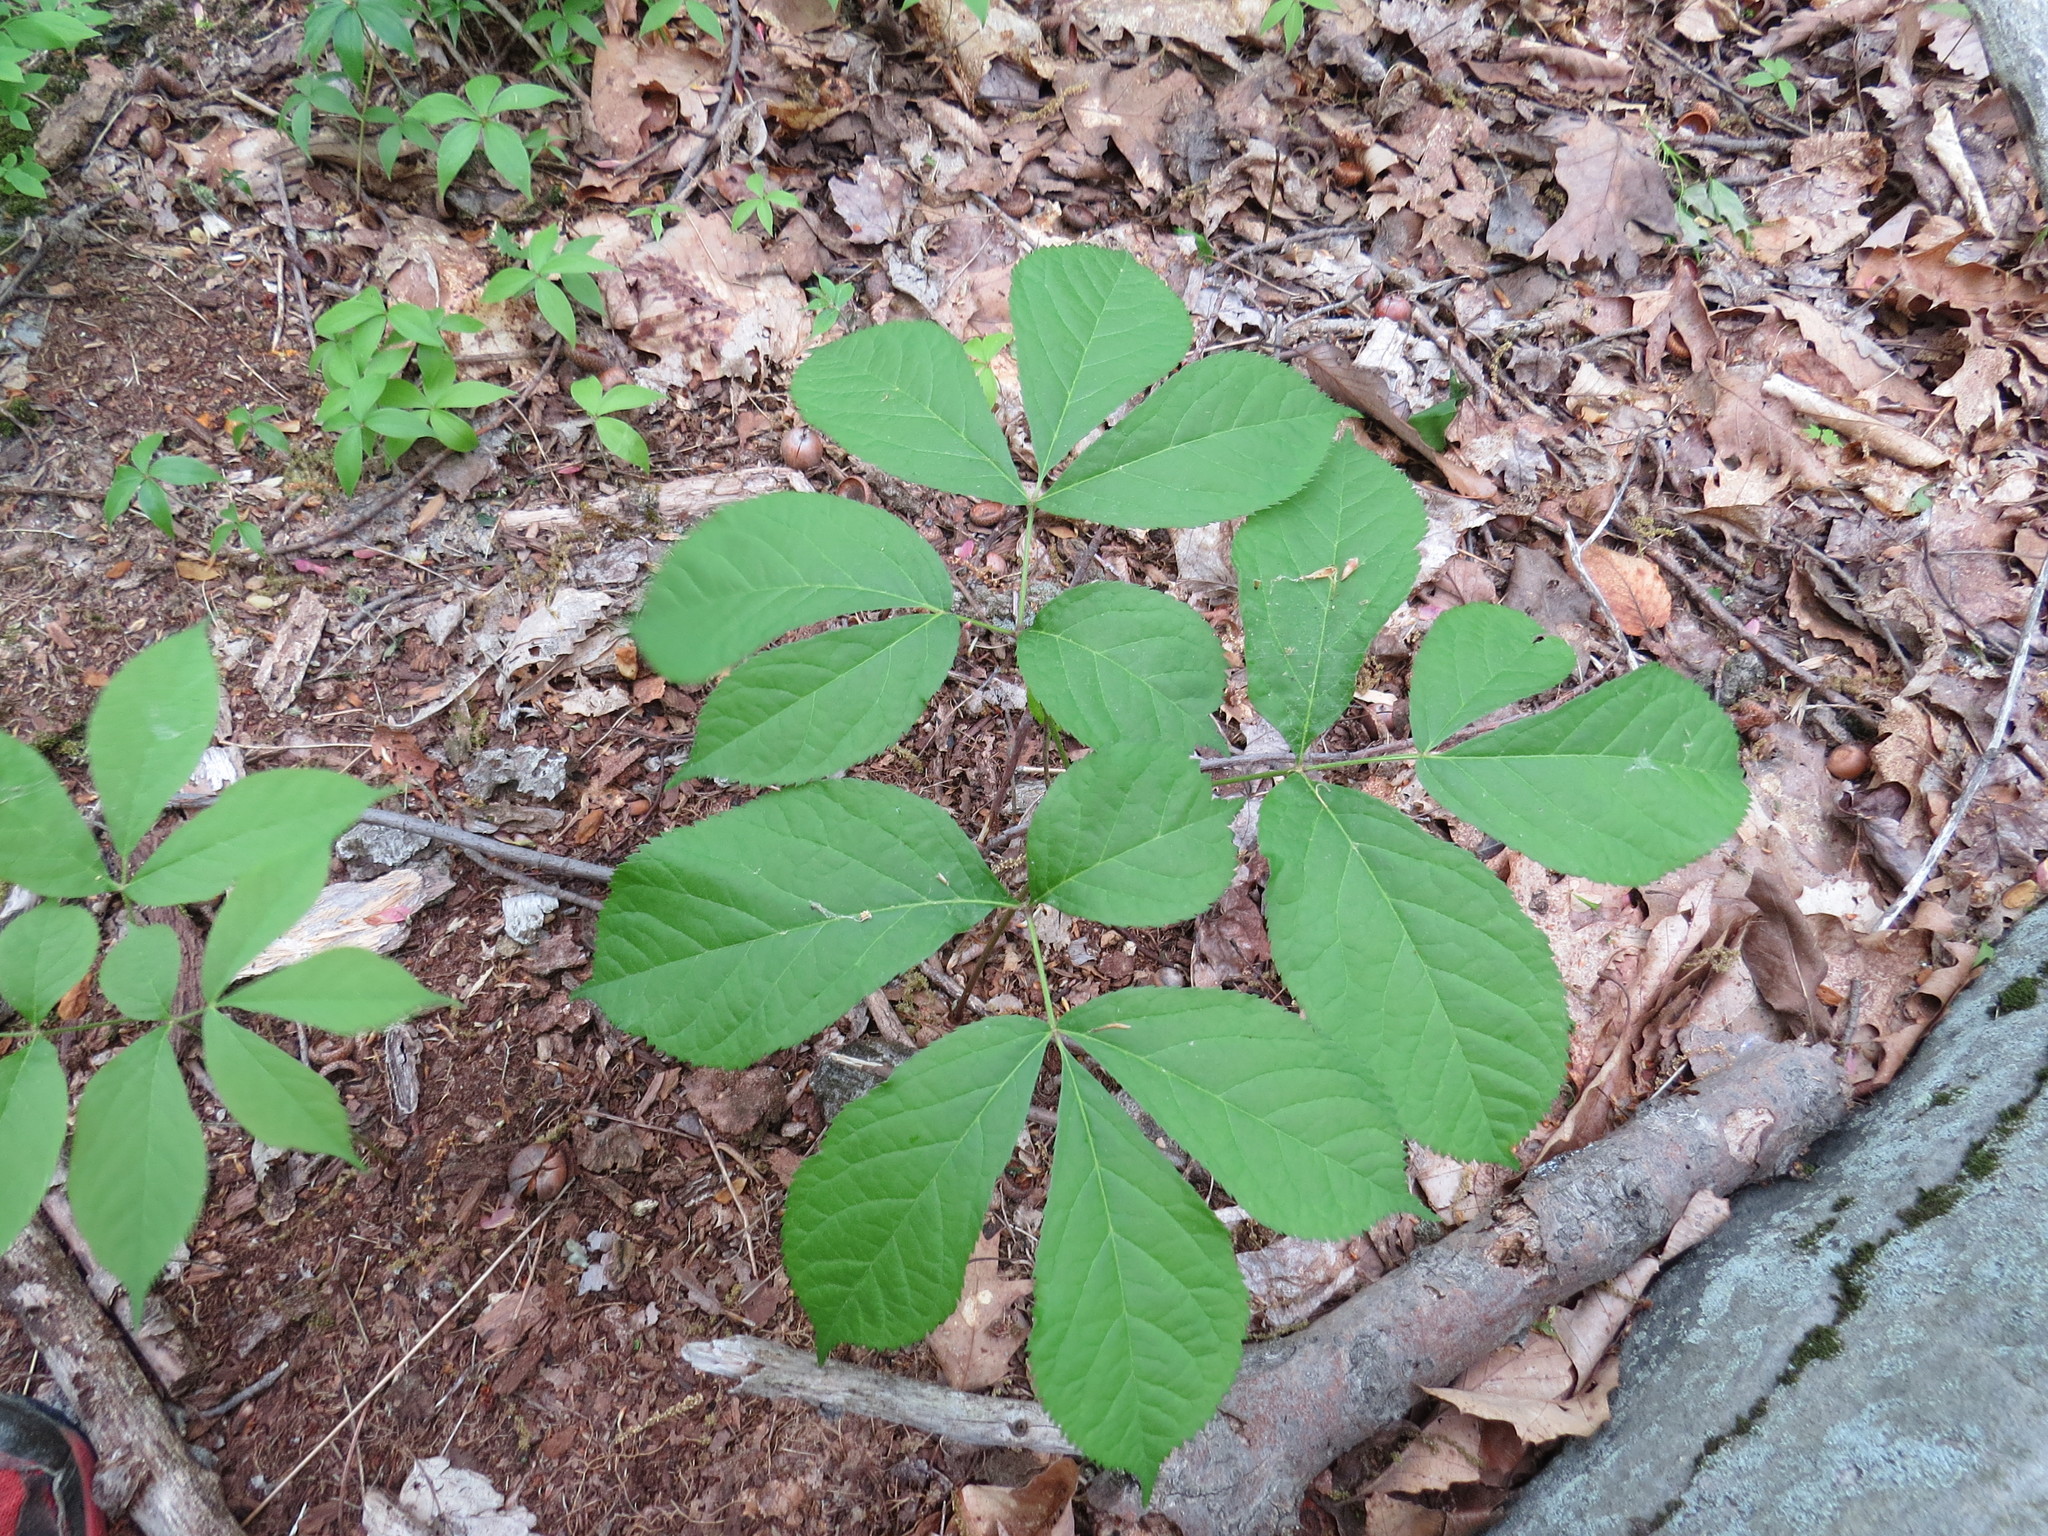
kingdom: Plantae
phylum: Tracheophyta
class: Magnoliopsida
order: Apiales
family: Araliaceae
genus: Aralia
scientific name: Aralia nudicaulis
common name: Wild sarsaparilla
